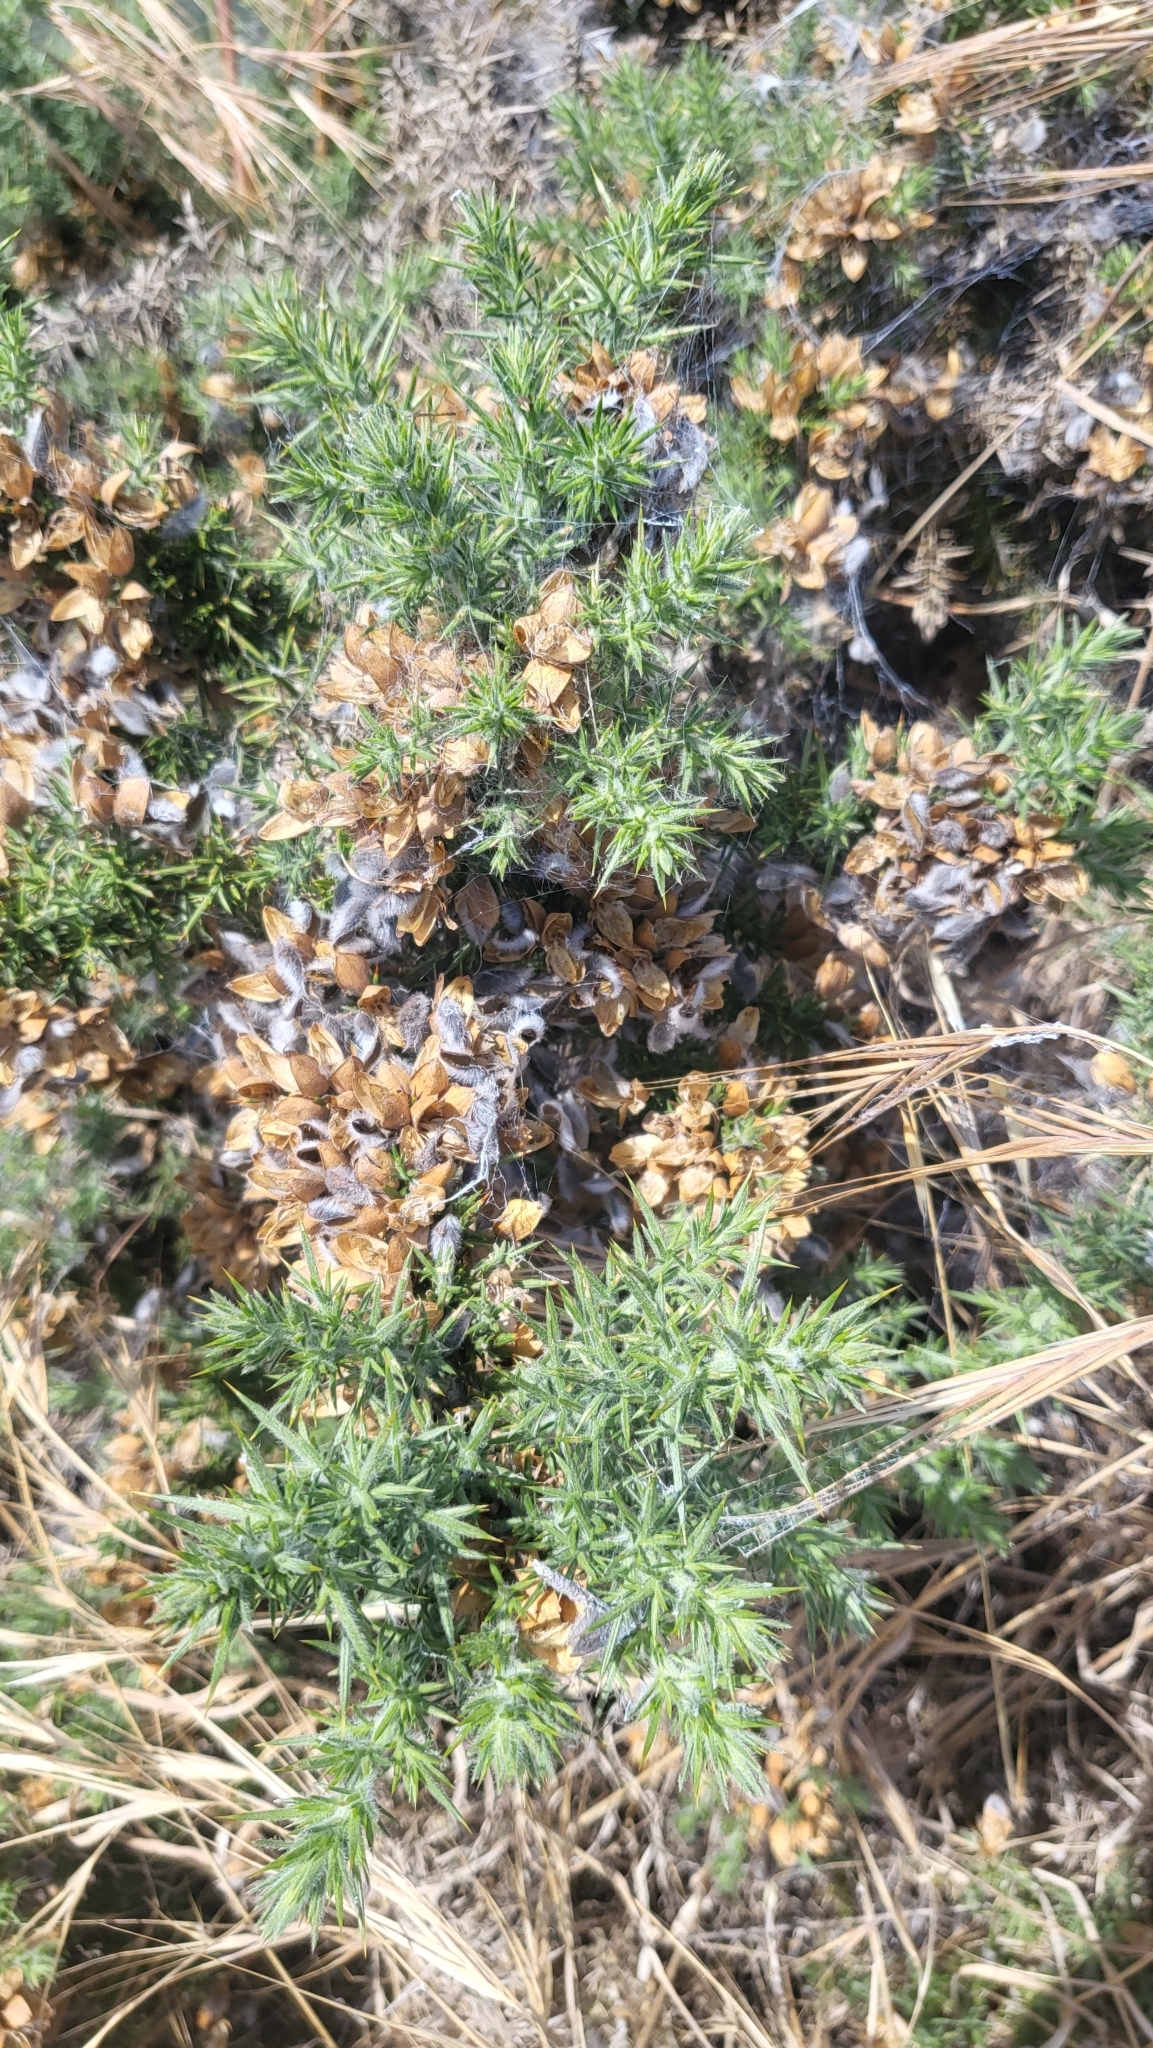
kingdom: Plantae
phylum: Tracheophyta
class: Magnoliopsida
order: Fabales
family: Fabaceae
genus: Ulex
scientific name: Ulex europaeus
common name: Common gorse
